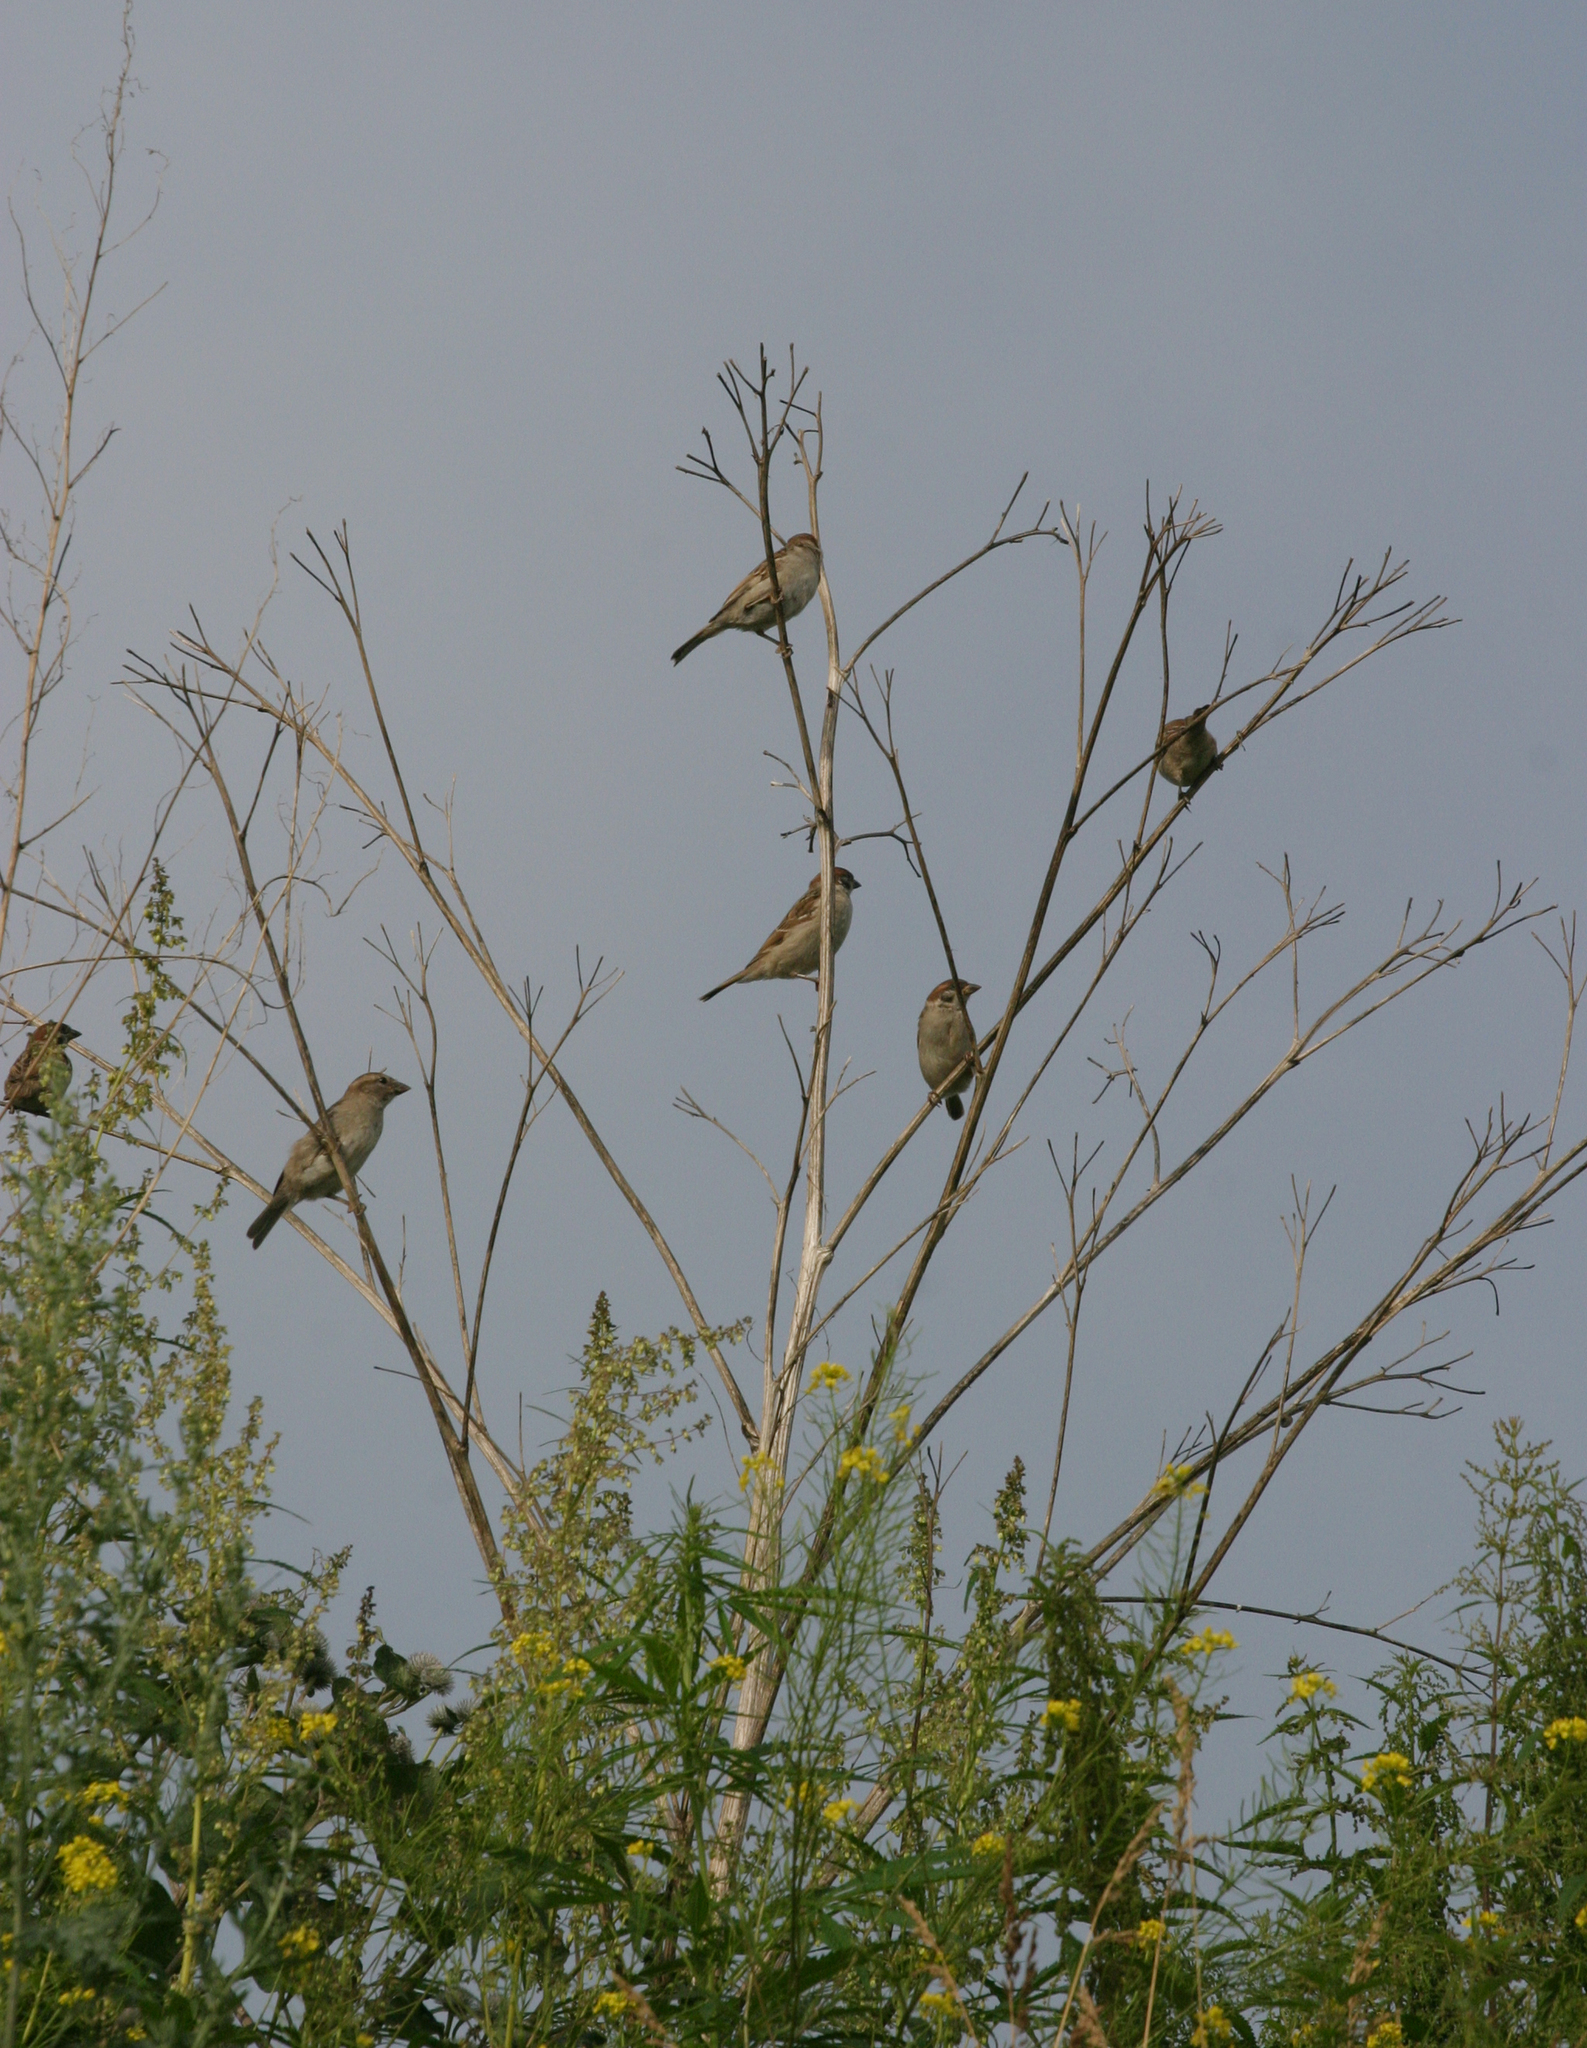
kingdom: Animalia
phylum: Chordata
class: Aves
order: Passeriformes
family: Passeridae
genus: Passer
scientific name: Passer montanus
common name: Eurasian tree sparrow
